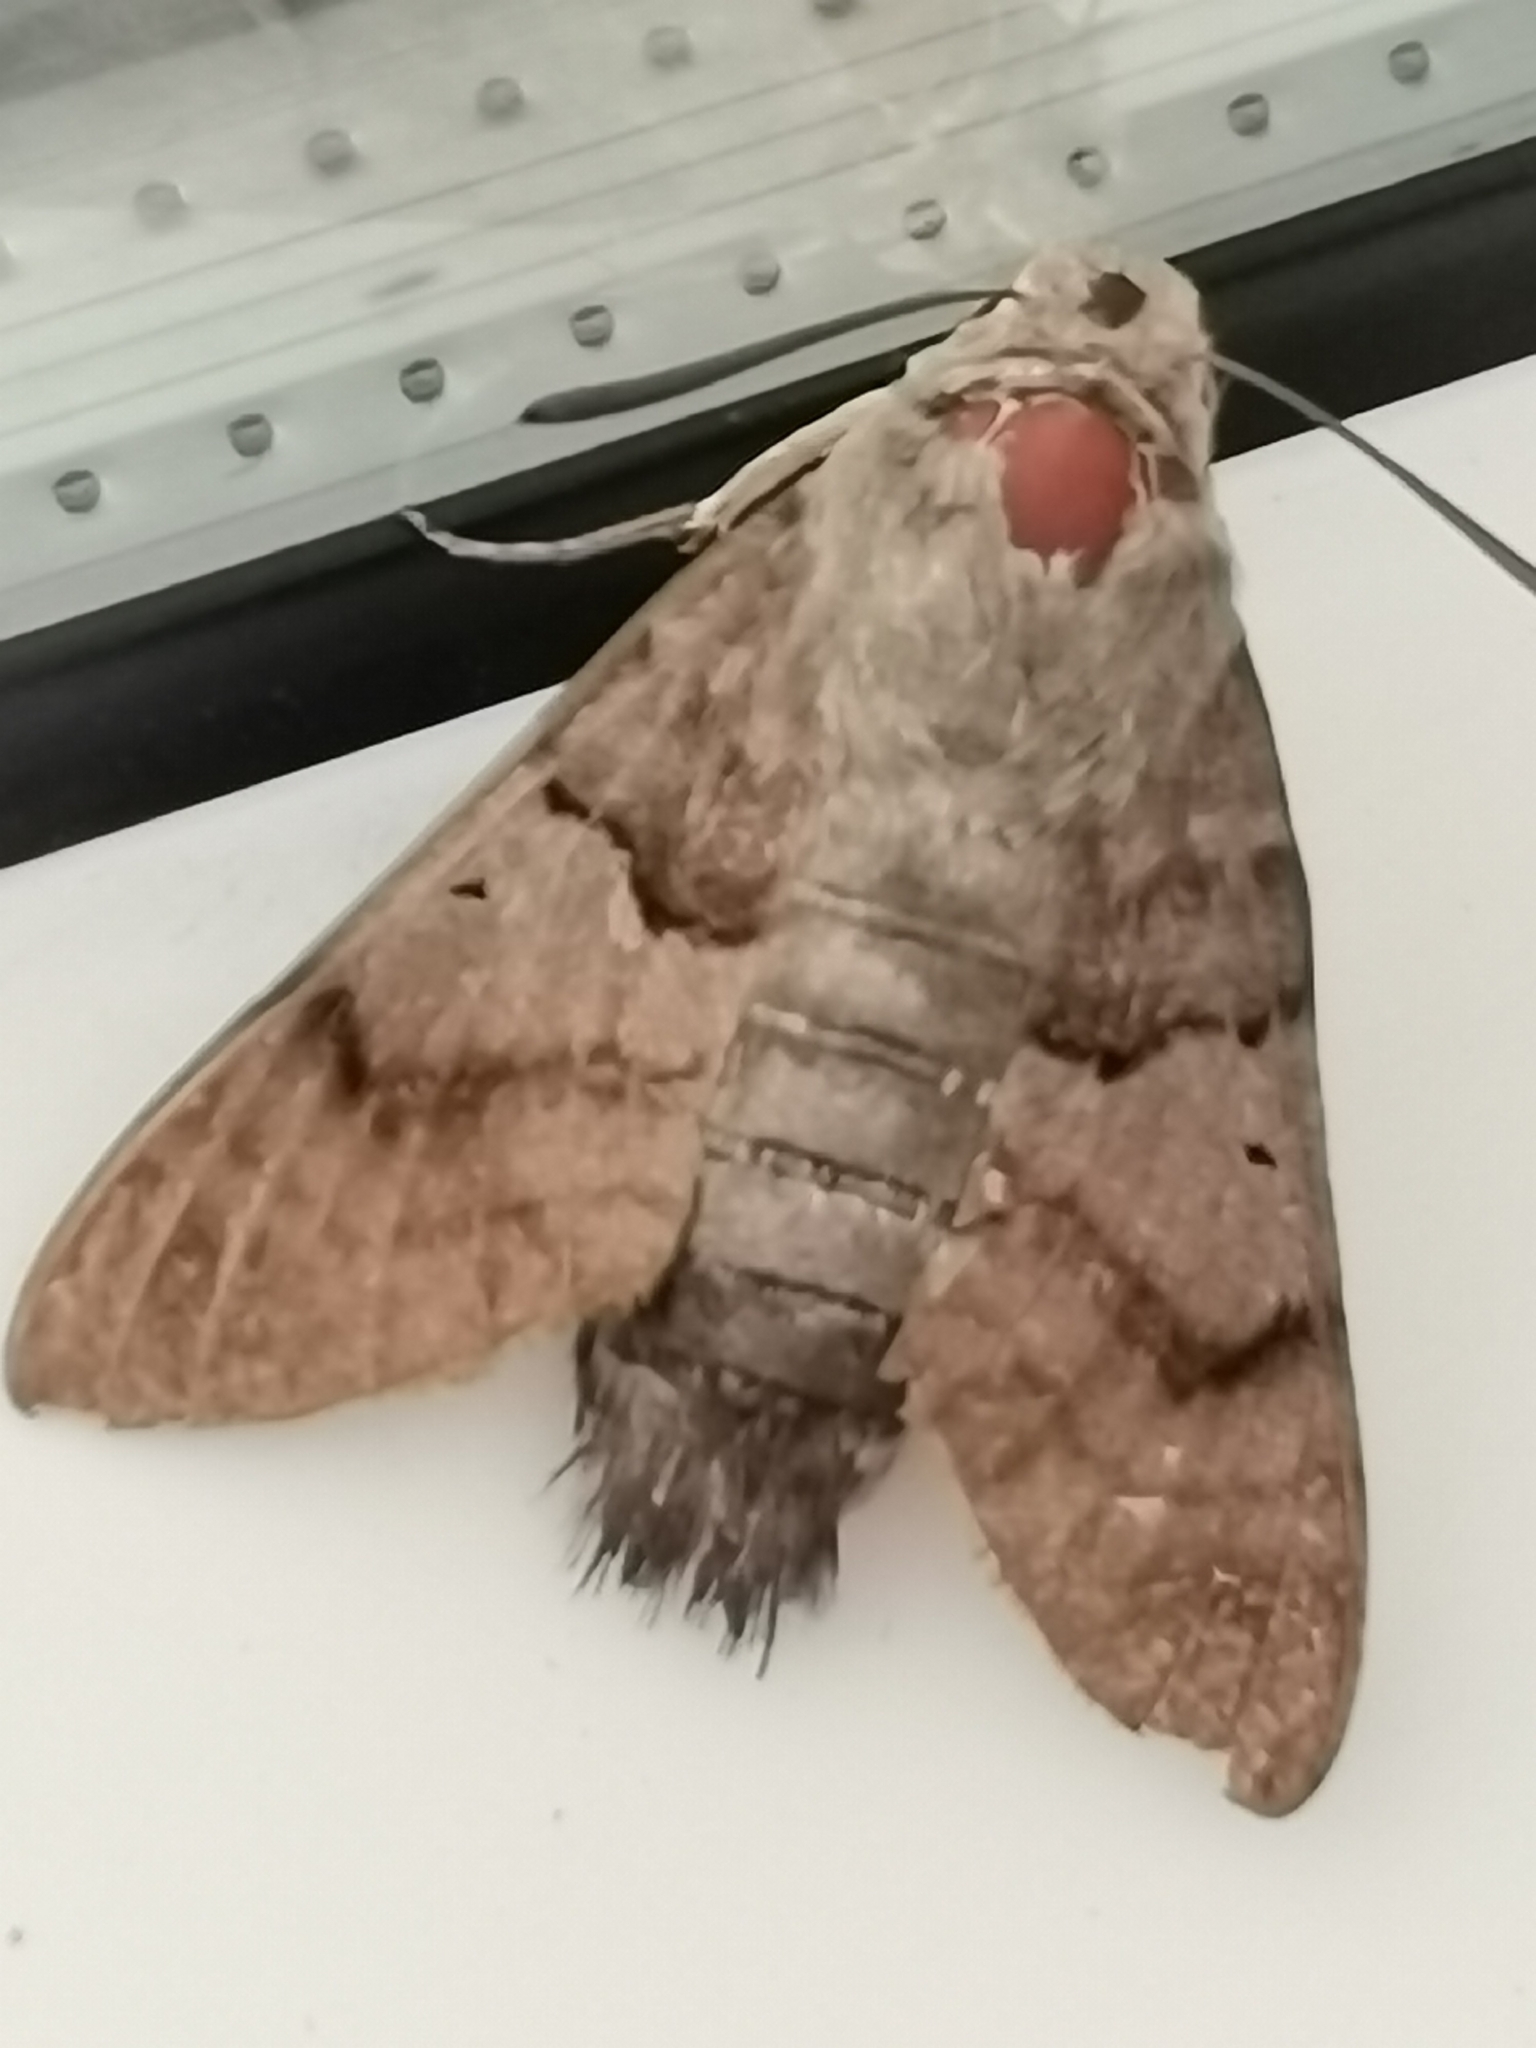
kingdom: Animalia
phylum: Arthropoda
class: Insecta
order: Lepidoptera
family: Sphingidae
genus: Macroglossum
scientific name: Macroglossum stellatarum
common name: Humming-bird hawk-moth
